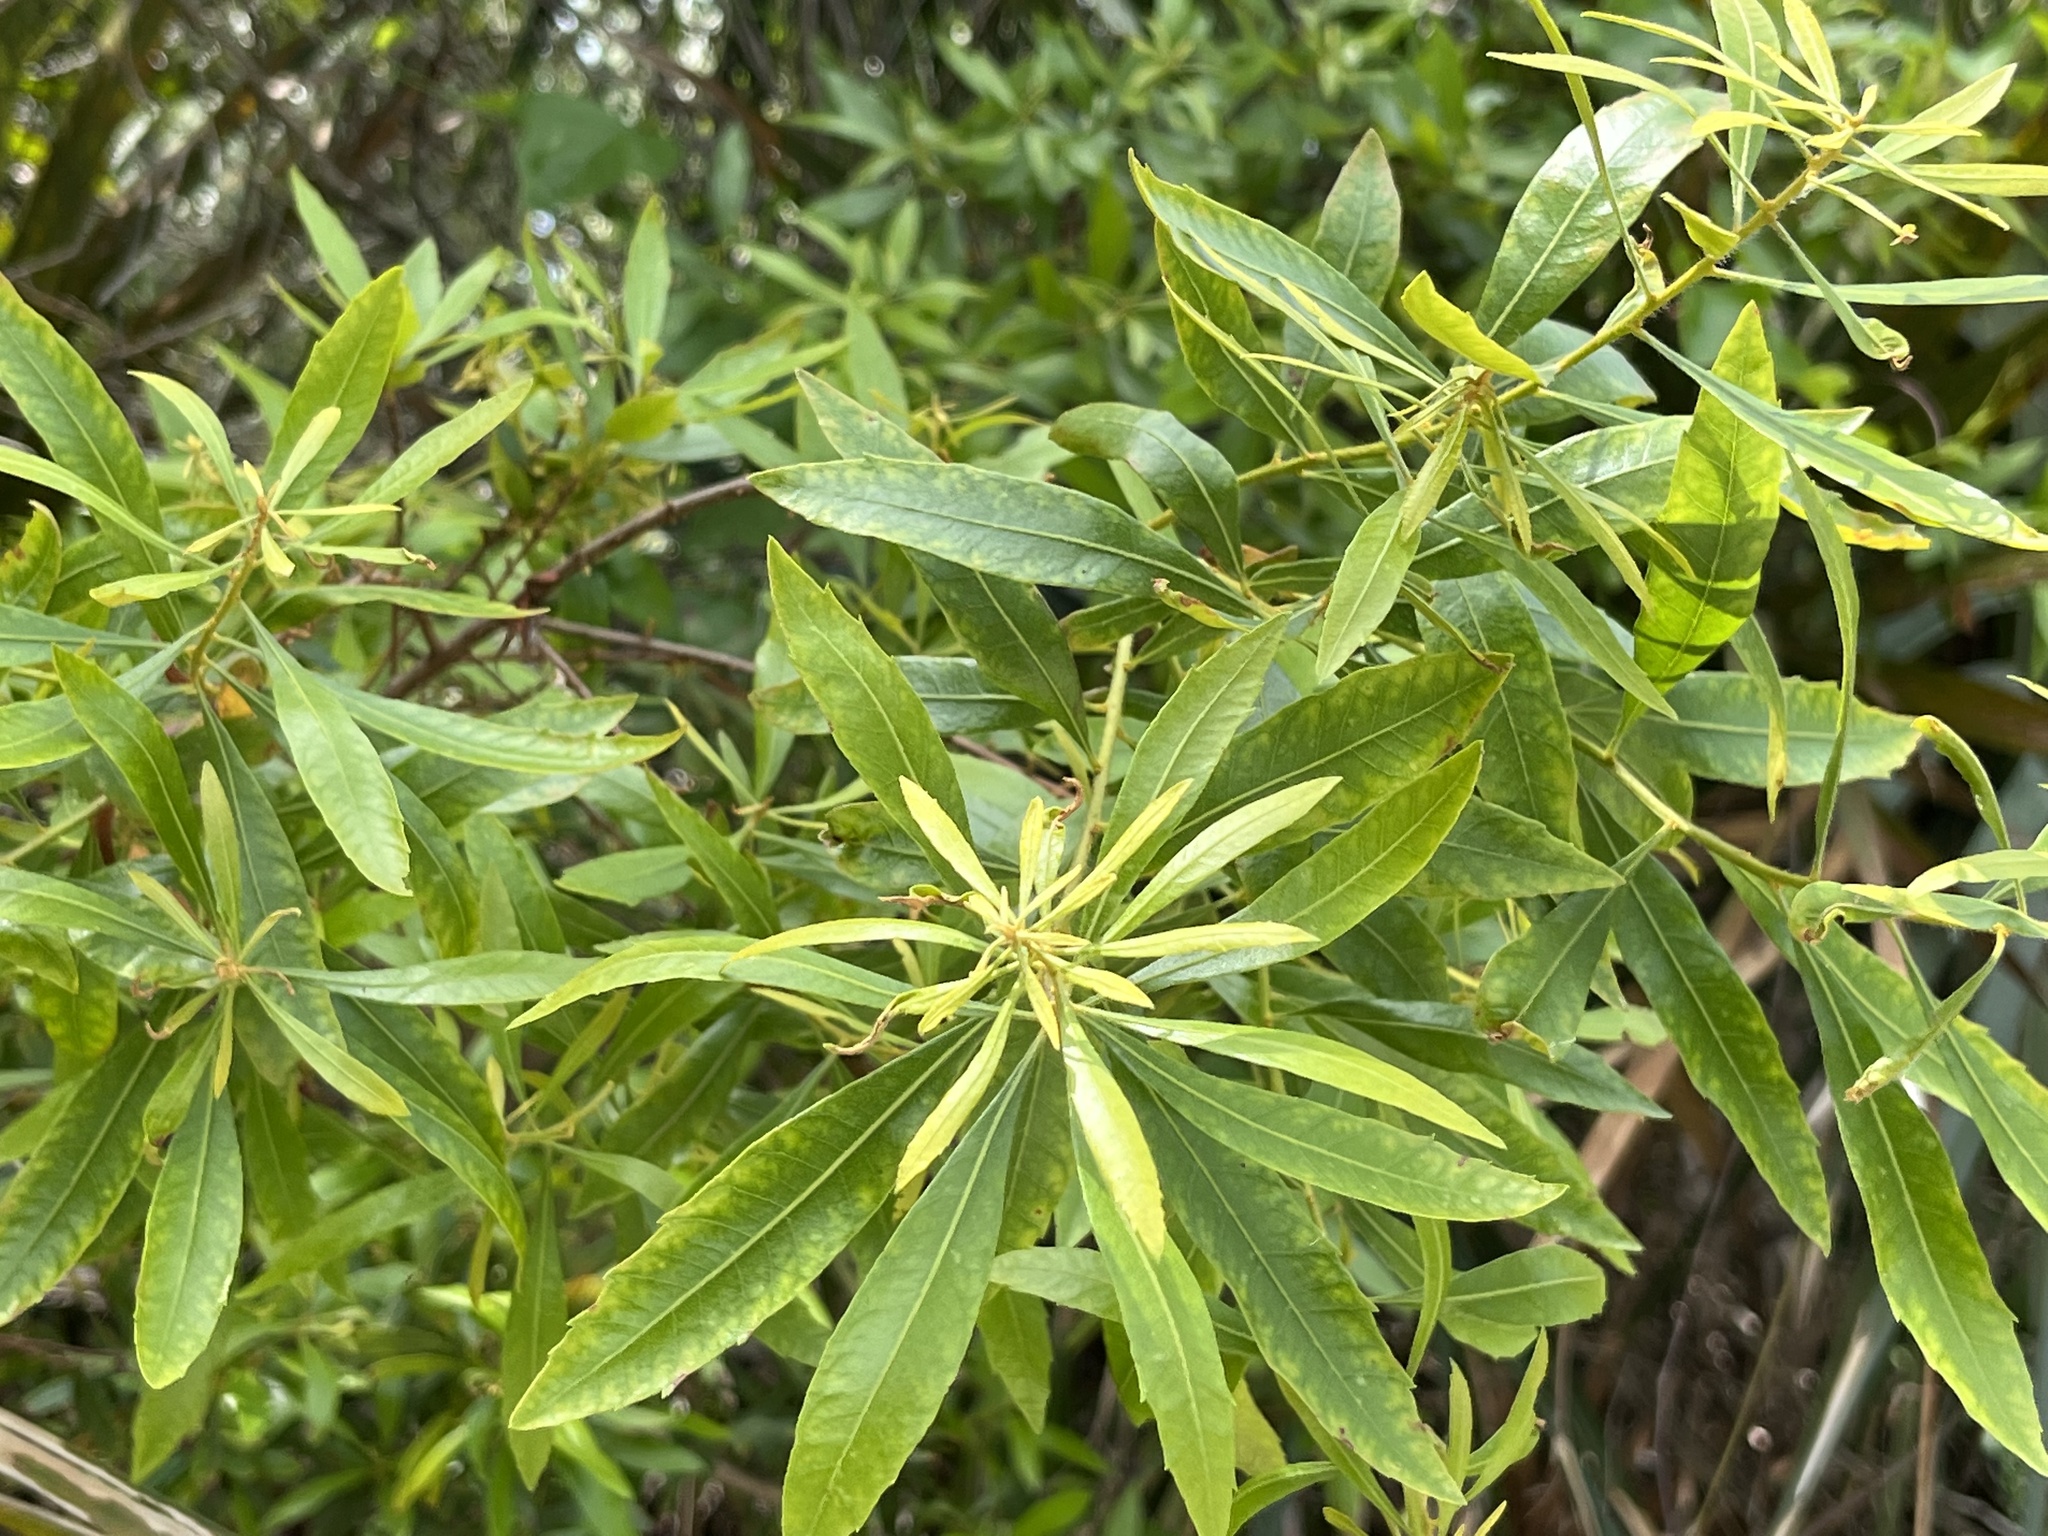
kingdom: Plantae
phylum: Tracheophyta
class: Magnoliopsida
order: Fagales
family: Myricaceae
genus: Morella
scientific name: Morella cerifera
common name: Wax myrtle
